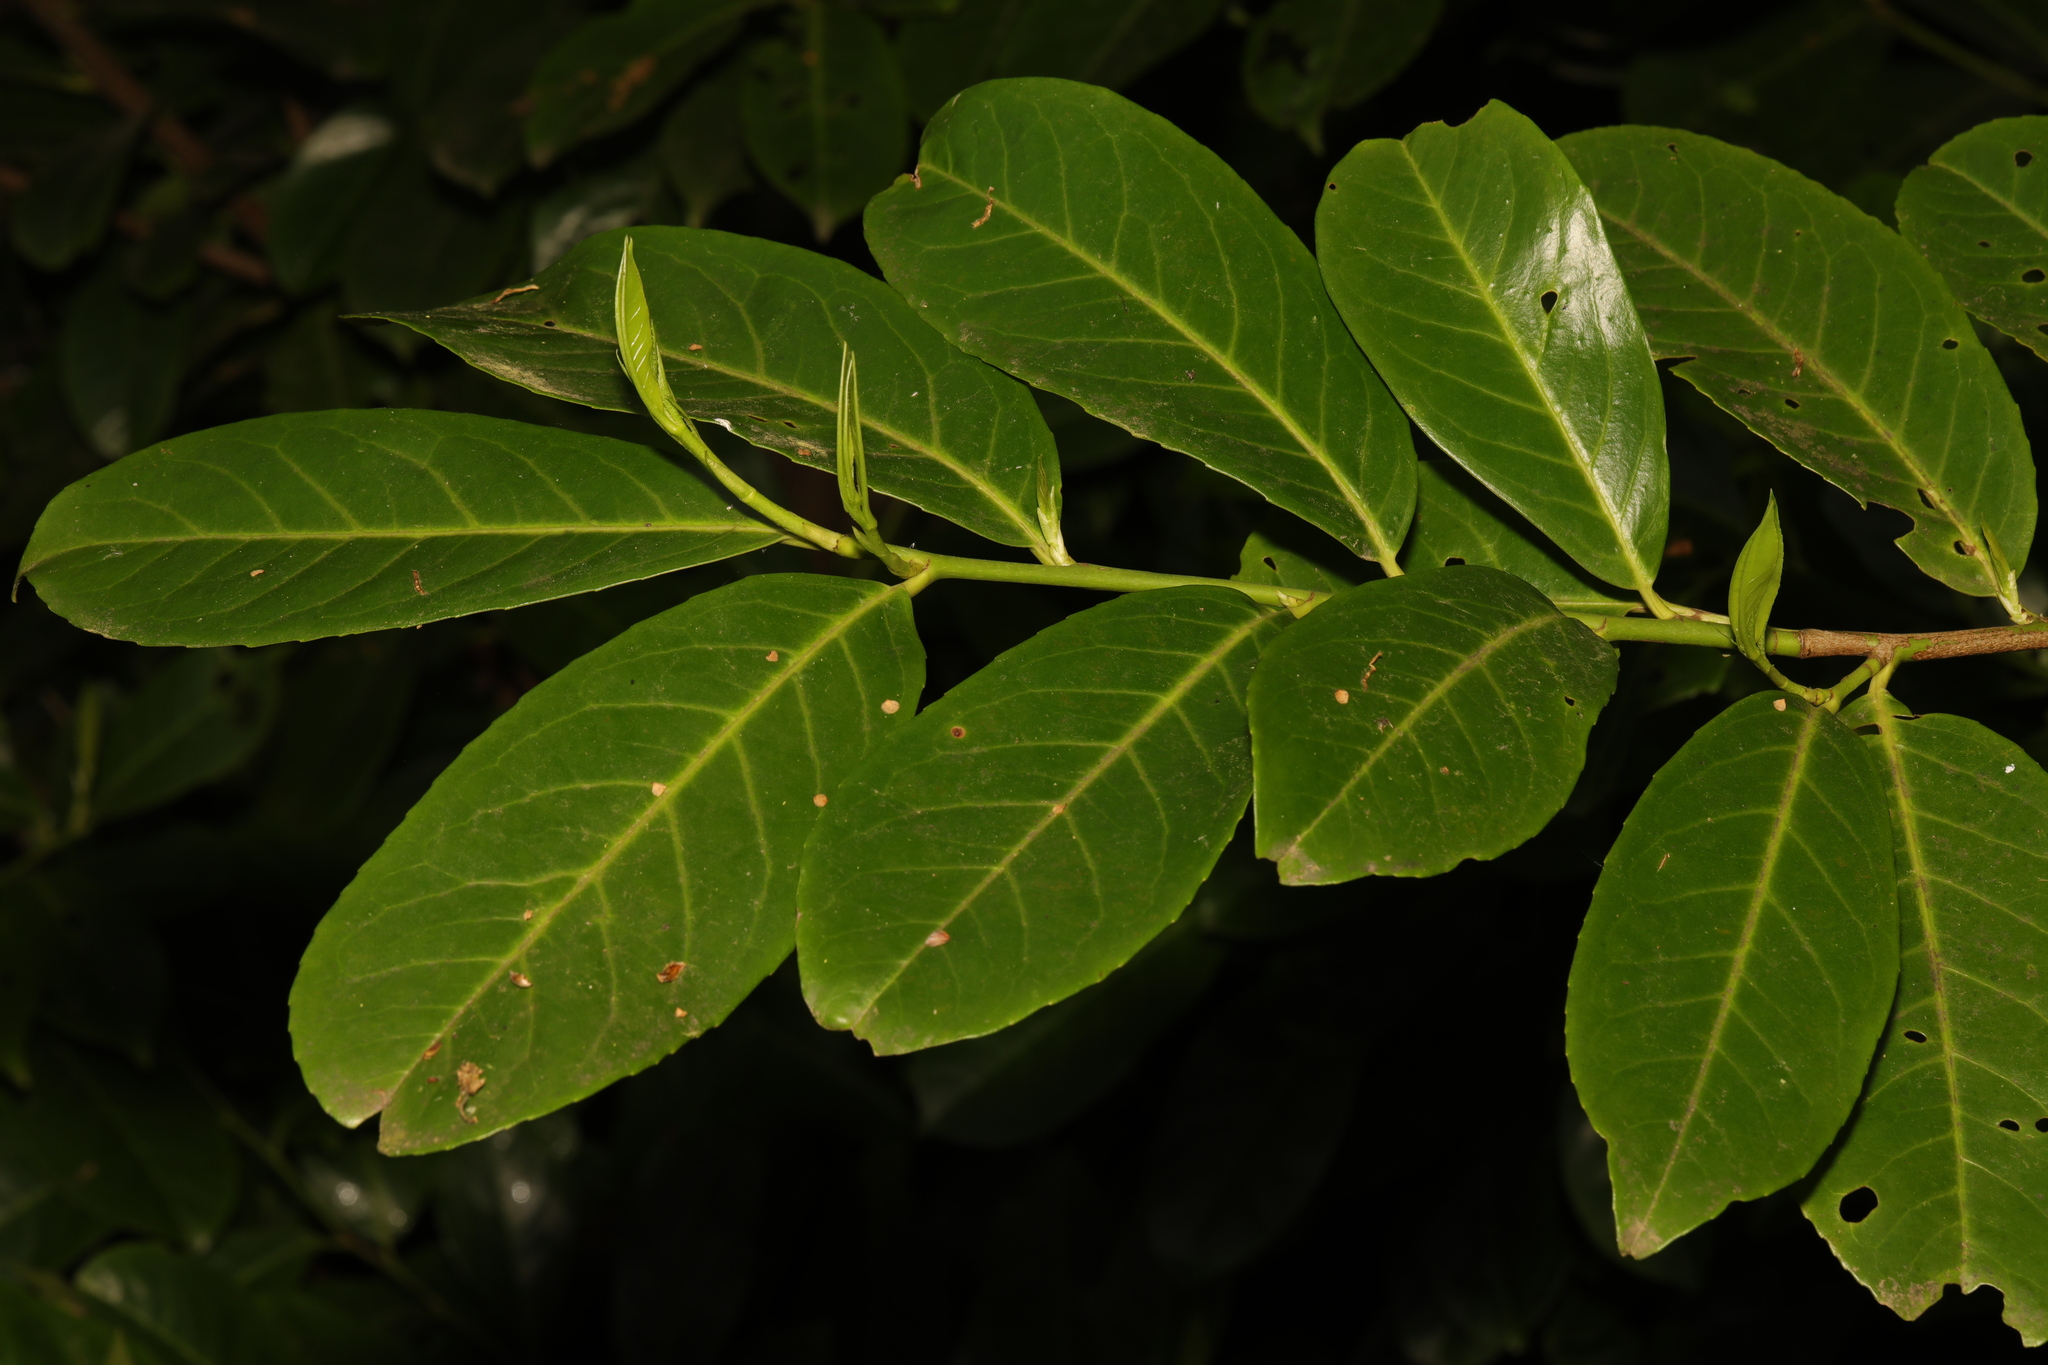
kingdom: Plantae
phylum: Tracheophyta
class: Magnoliopsida
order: Rosales
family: Rosaceae
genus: Prunus
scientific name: Prunus laurocerasus
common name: Cherry laurel
